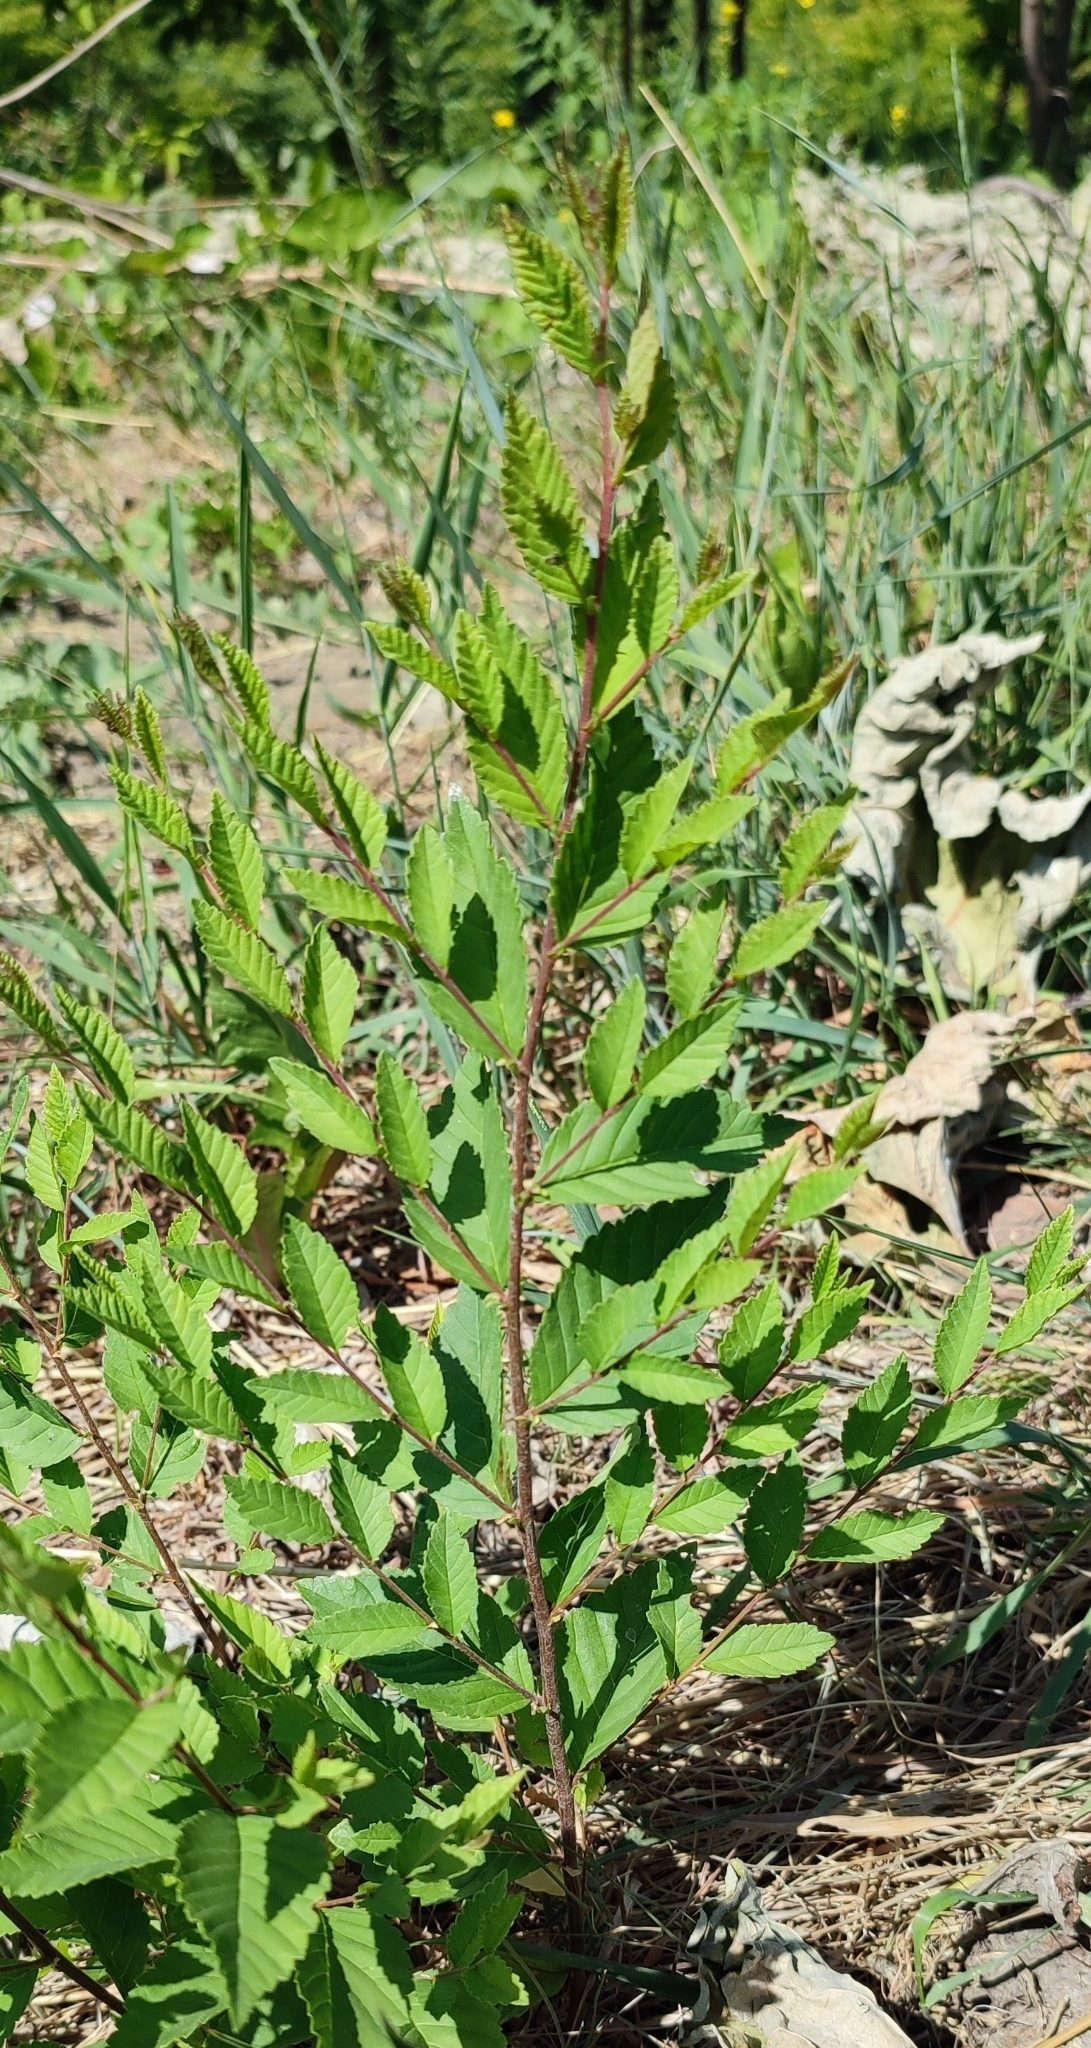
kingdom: Plantae
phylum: Tracheophyta
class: Magnoliopsida
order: Rosales
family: Ulmaceae
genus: Ulmus
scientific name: Ulmus pumila
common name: Siberian elm
